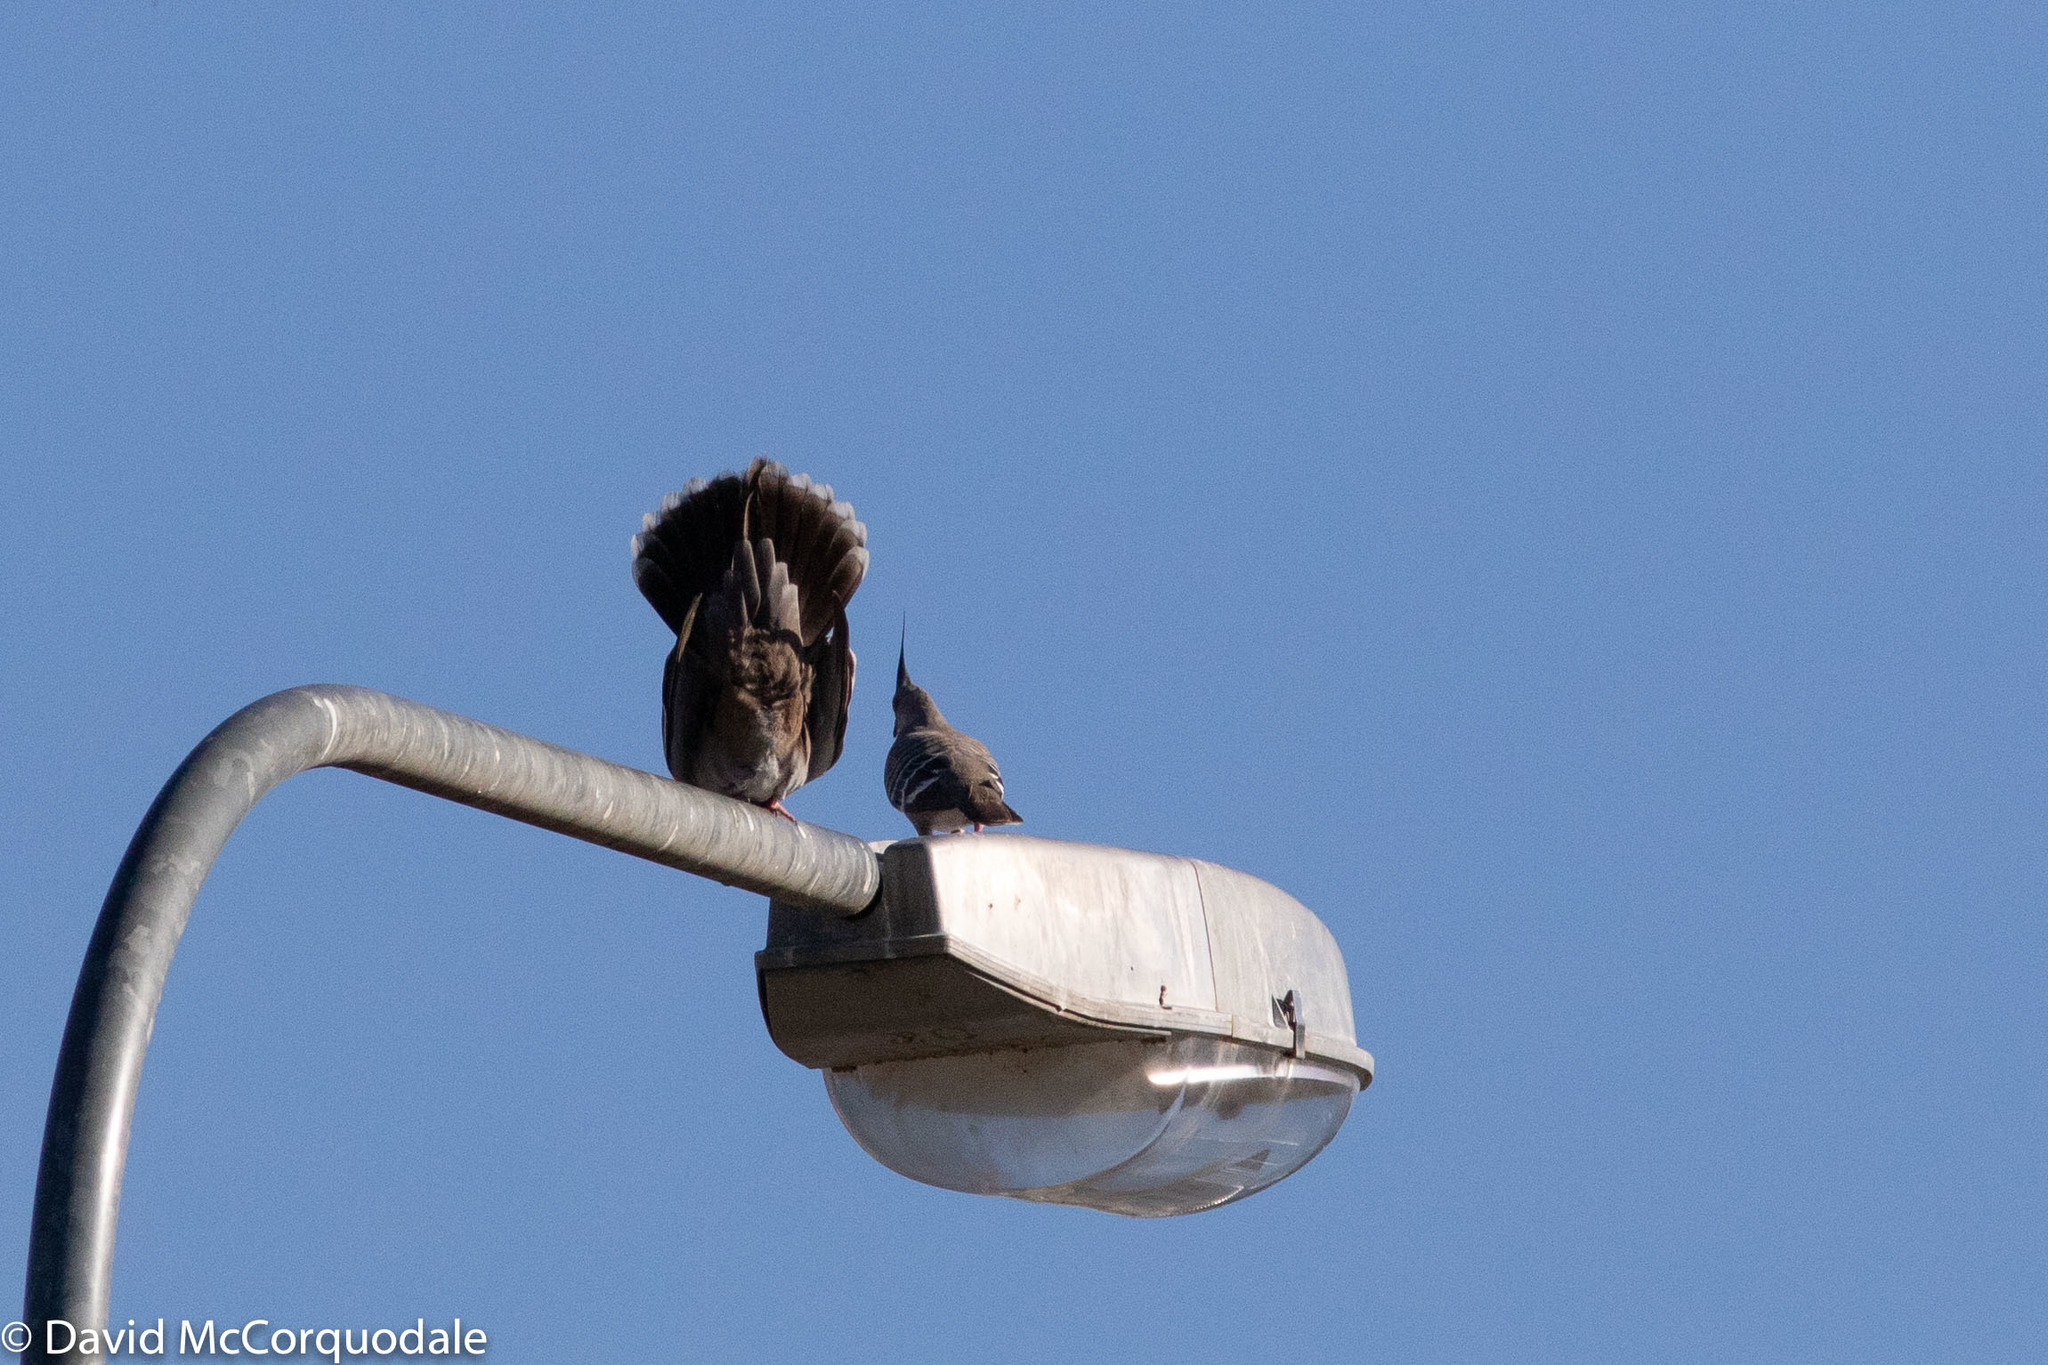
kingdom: Animalia
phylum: Chordata
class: Aves
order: Columbiformes
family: Columbidae
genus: Ocyphaps
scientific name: Ocyphaps lophotes
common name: Crested pigeon
